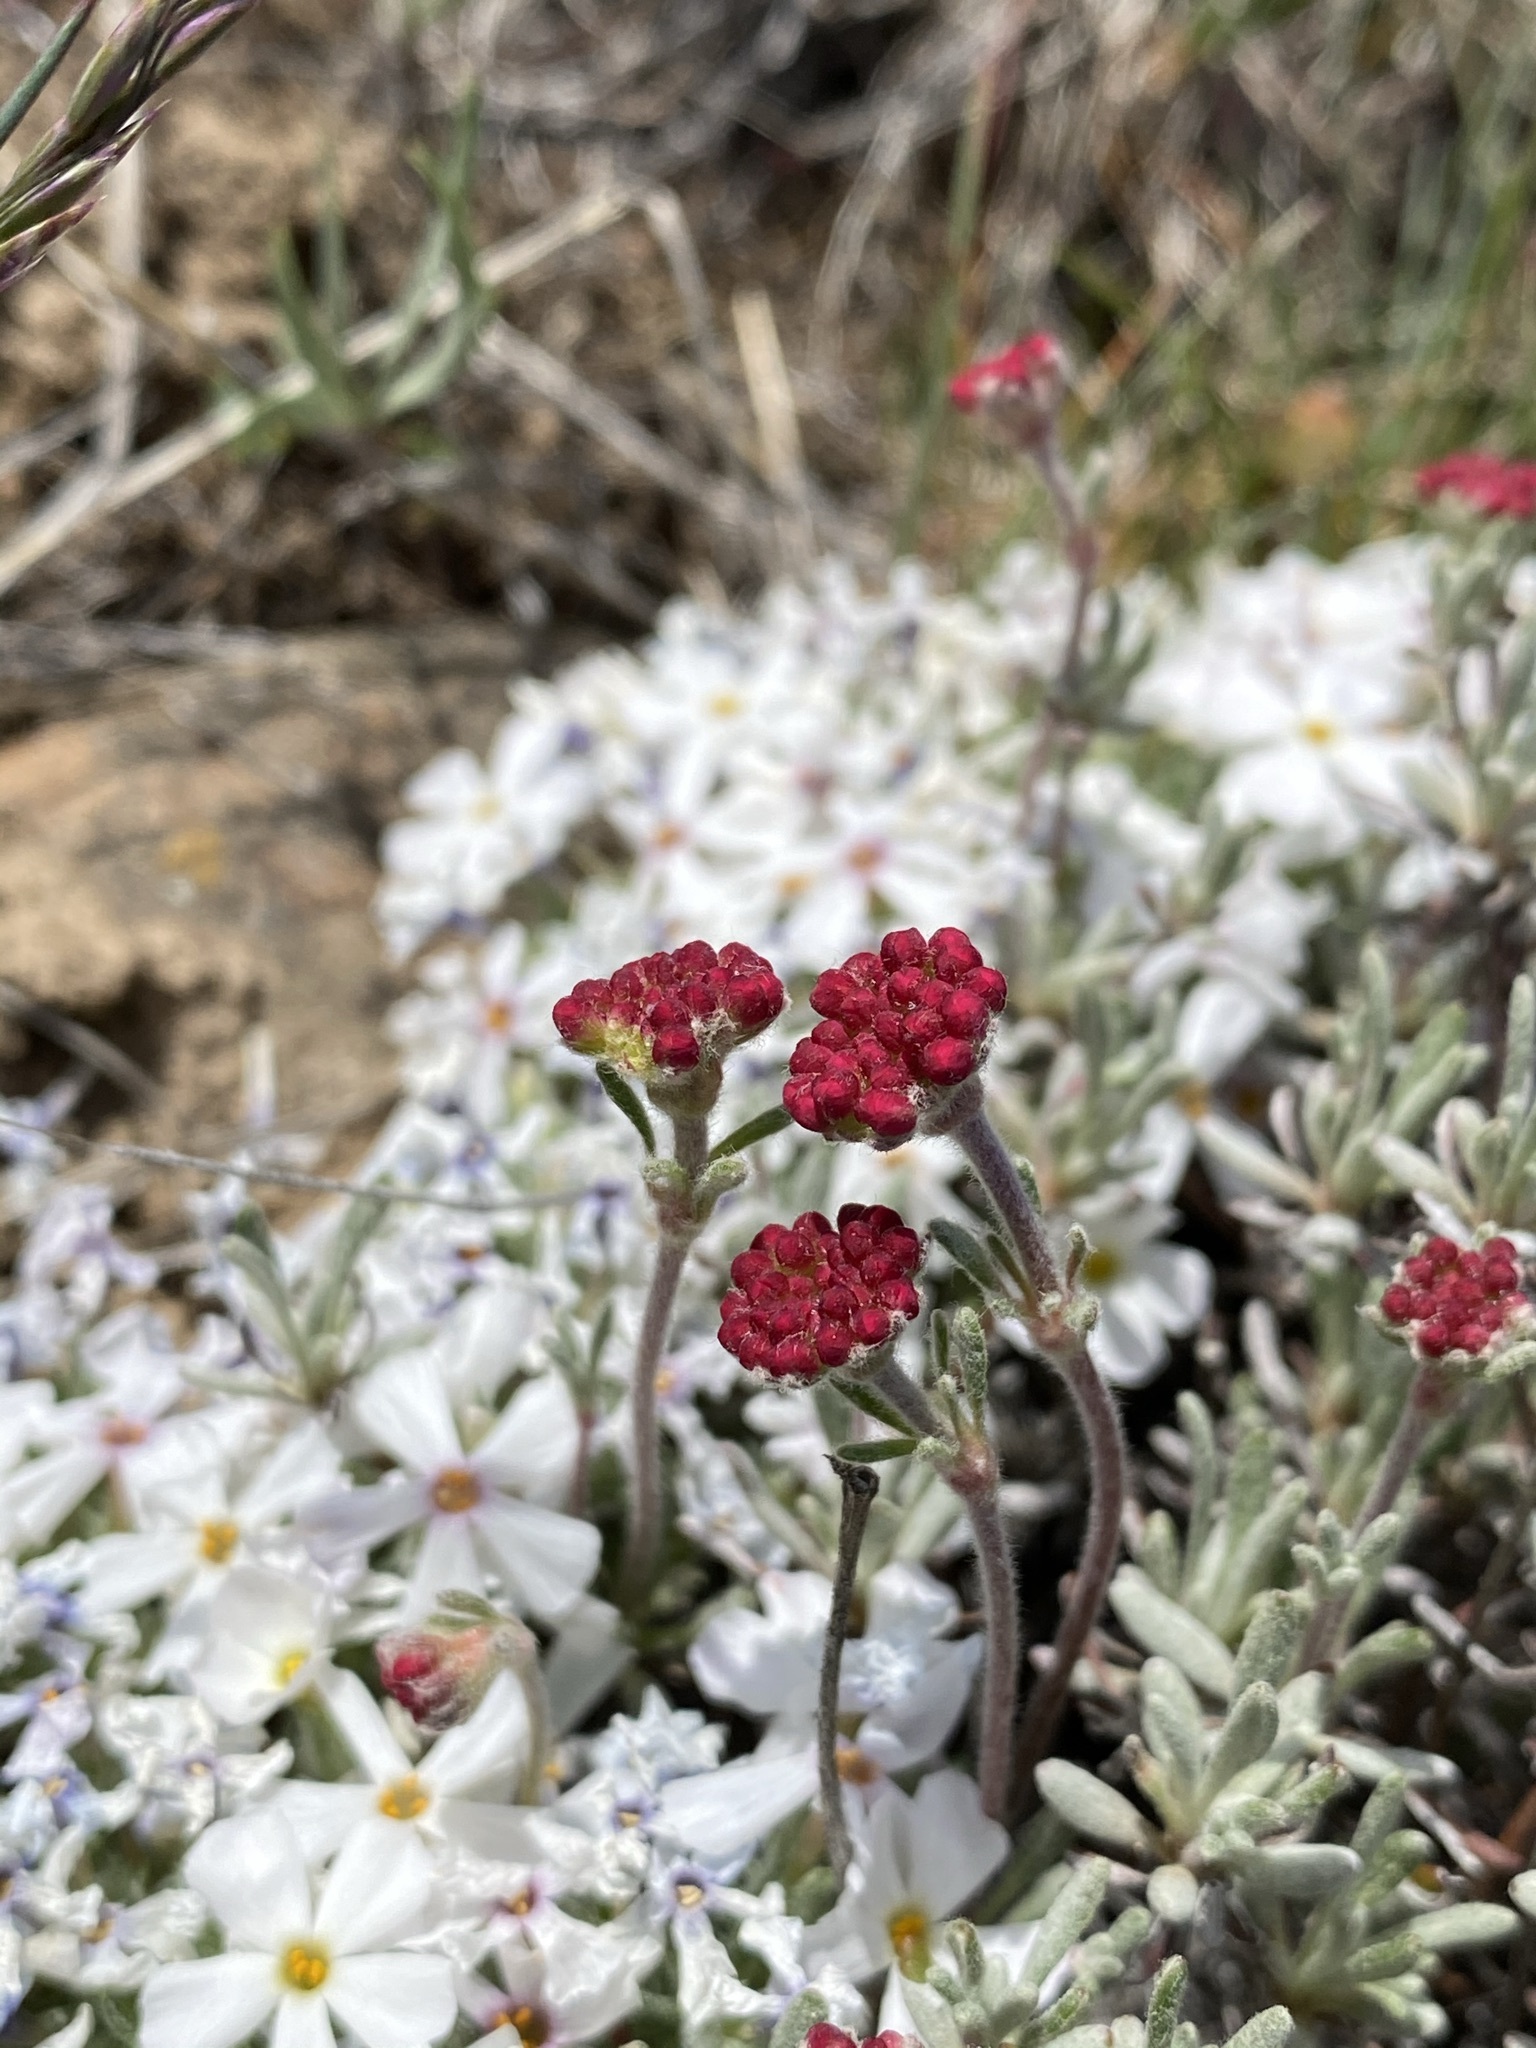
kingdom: Plantae
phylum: Tracheophyta
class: Magnoliopsida
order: Caryophyllales
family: Polygonaceae
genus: Eriogonum
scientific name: Eriogonum thymoides
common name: Thyme-leaf wild buckwheat
